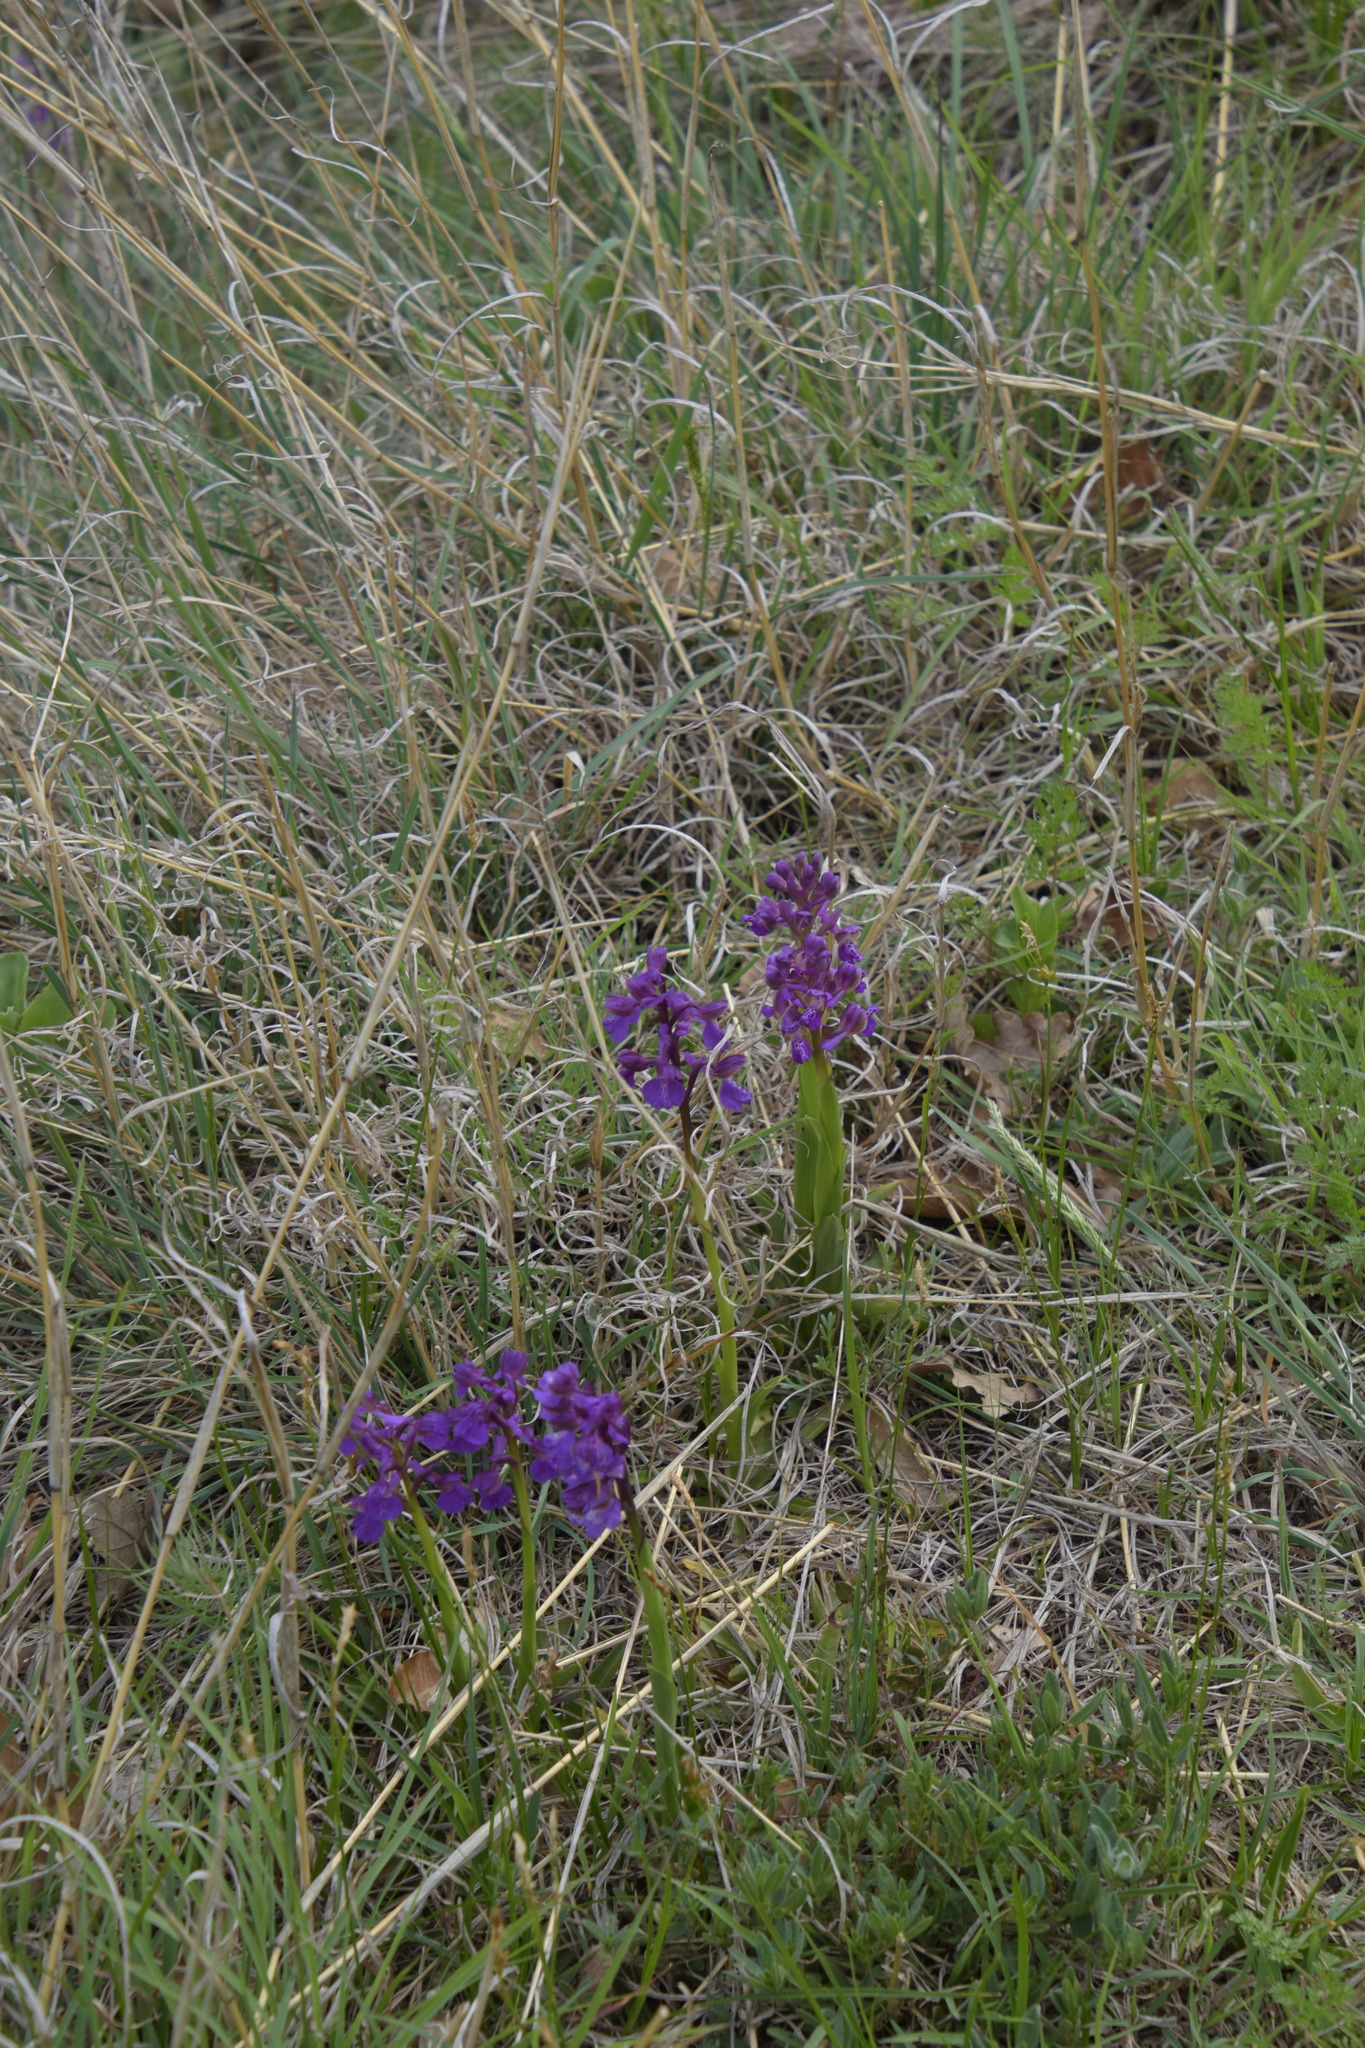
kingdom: Plantae
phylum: Tracheophyta
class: Liliopsida
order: Asparagales
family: Orchidaceae
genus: Anacamptis
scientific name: Anacamptis morio
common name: Green-winged orchid
